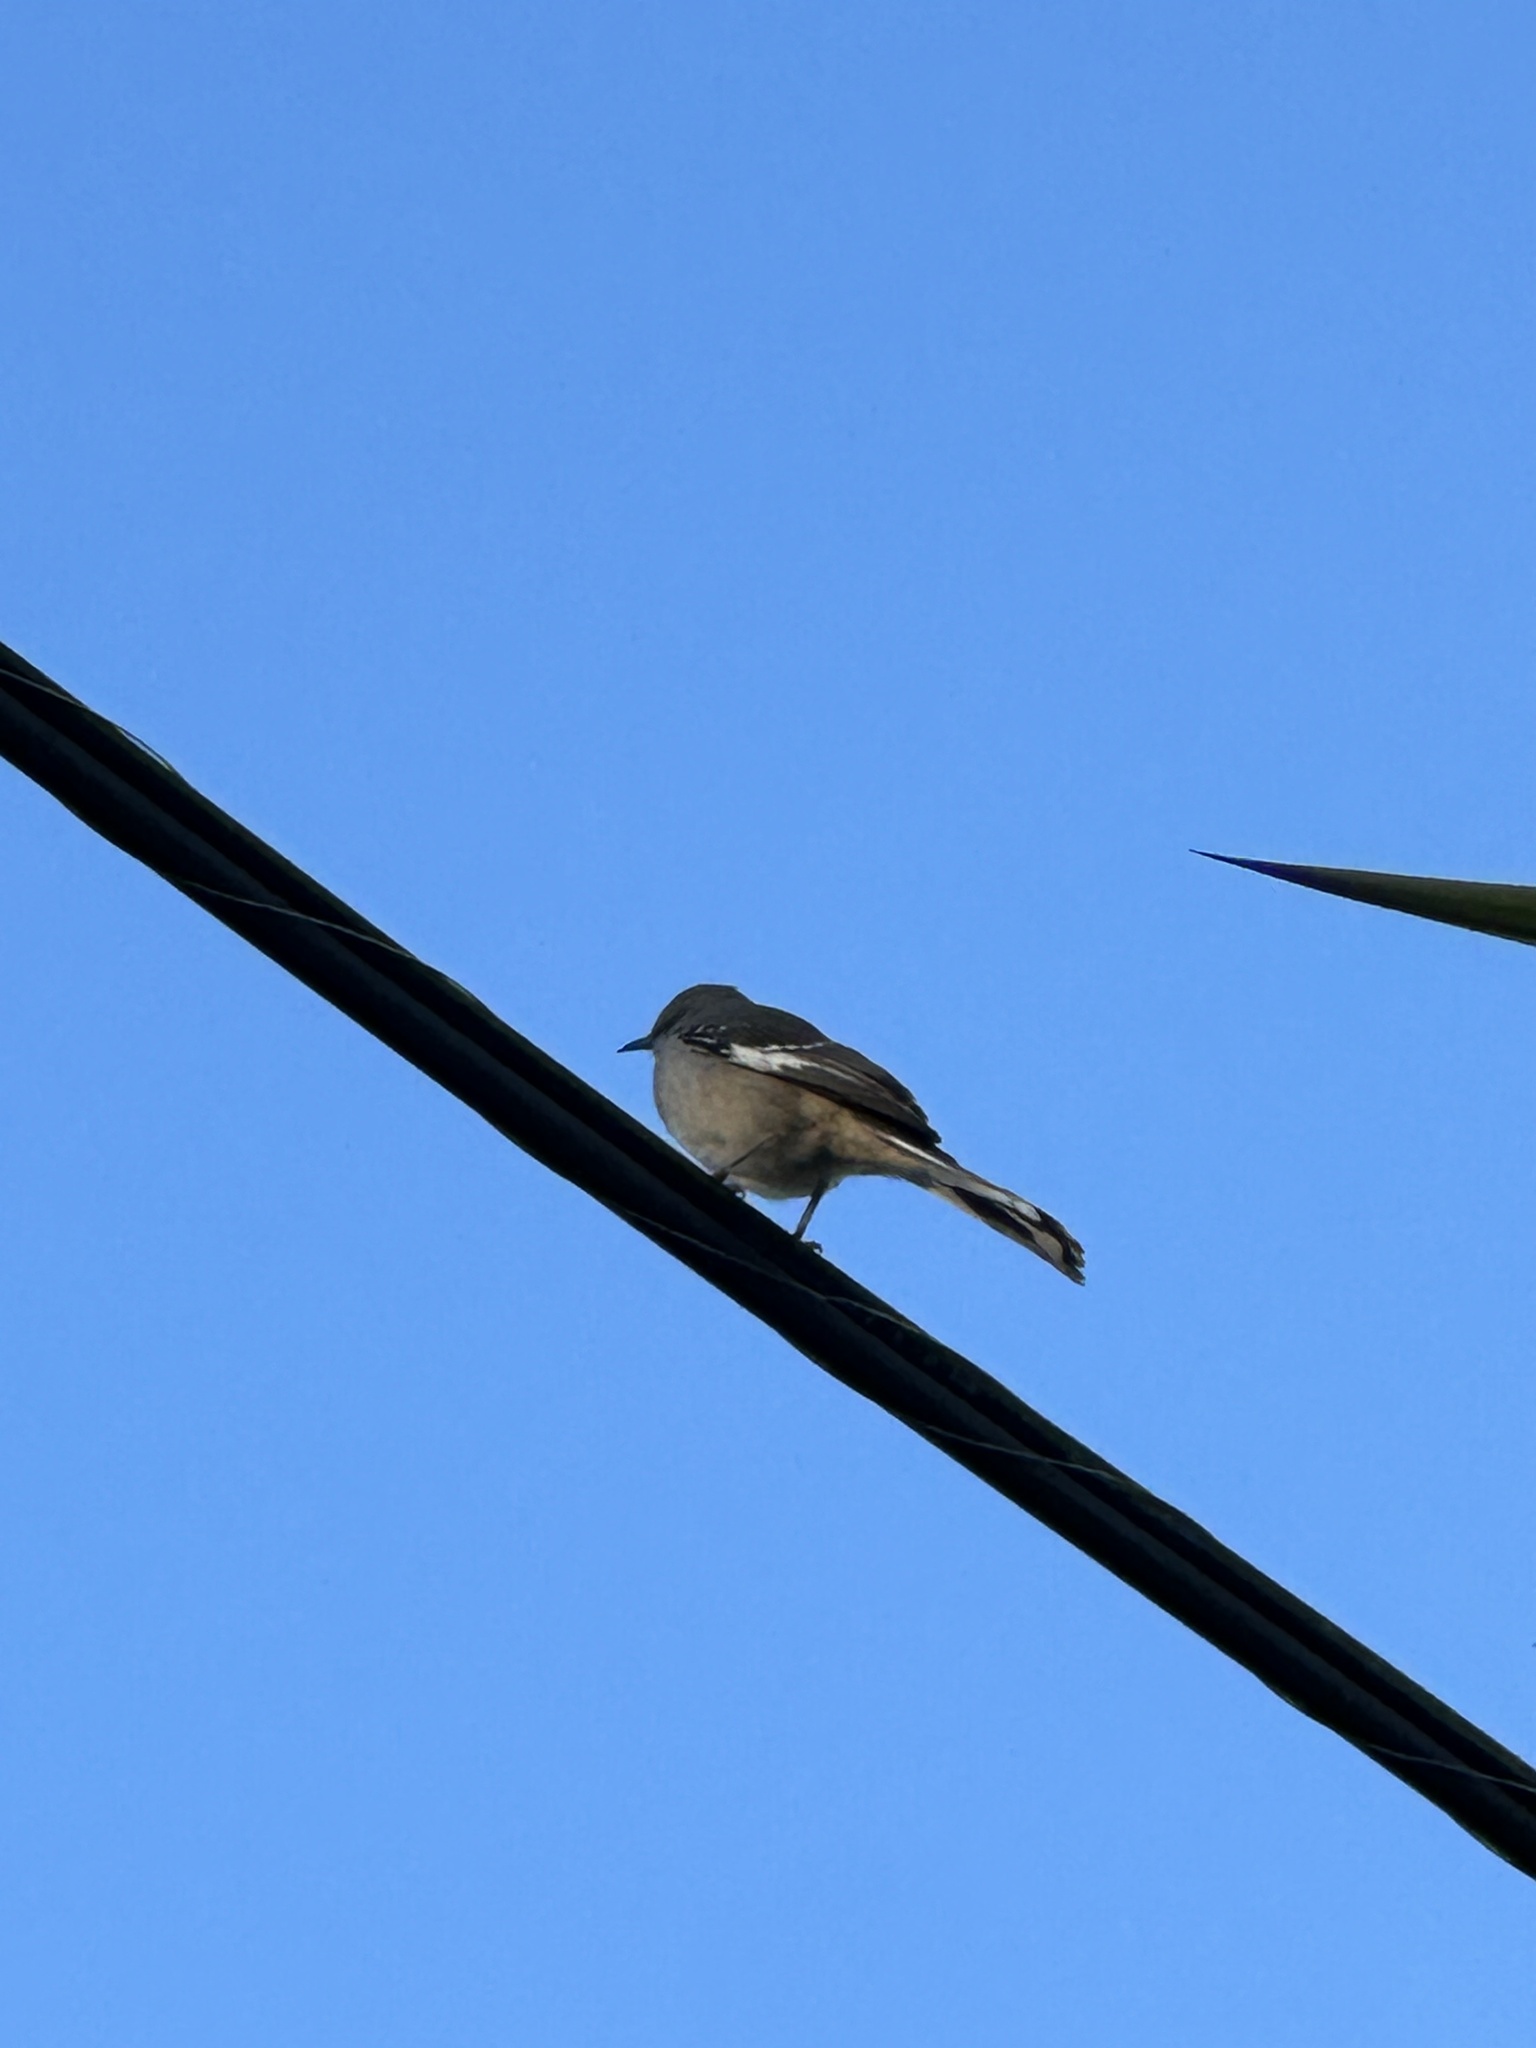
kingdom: Animalia
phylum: Chordata
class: Aves
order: Passeriformes
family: Mimidae
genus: Mimus
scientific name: Mimus polyglottos
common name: Northern mockingbird
